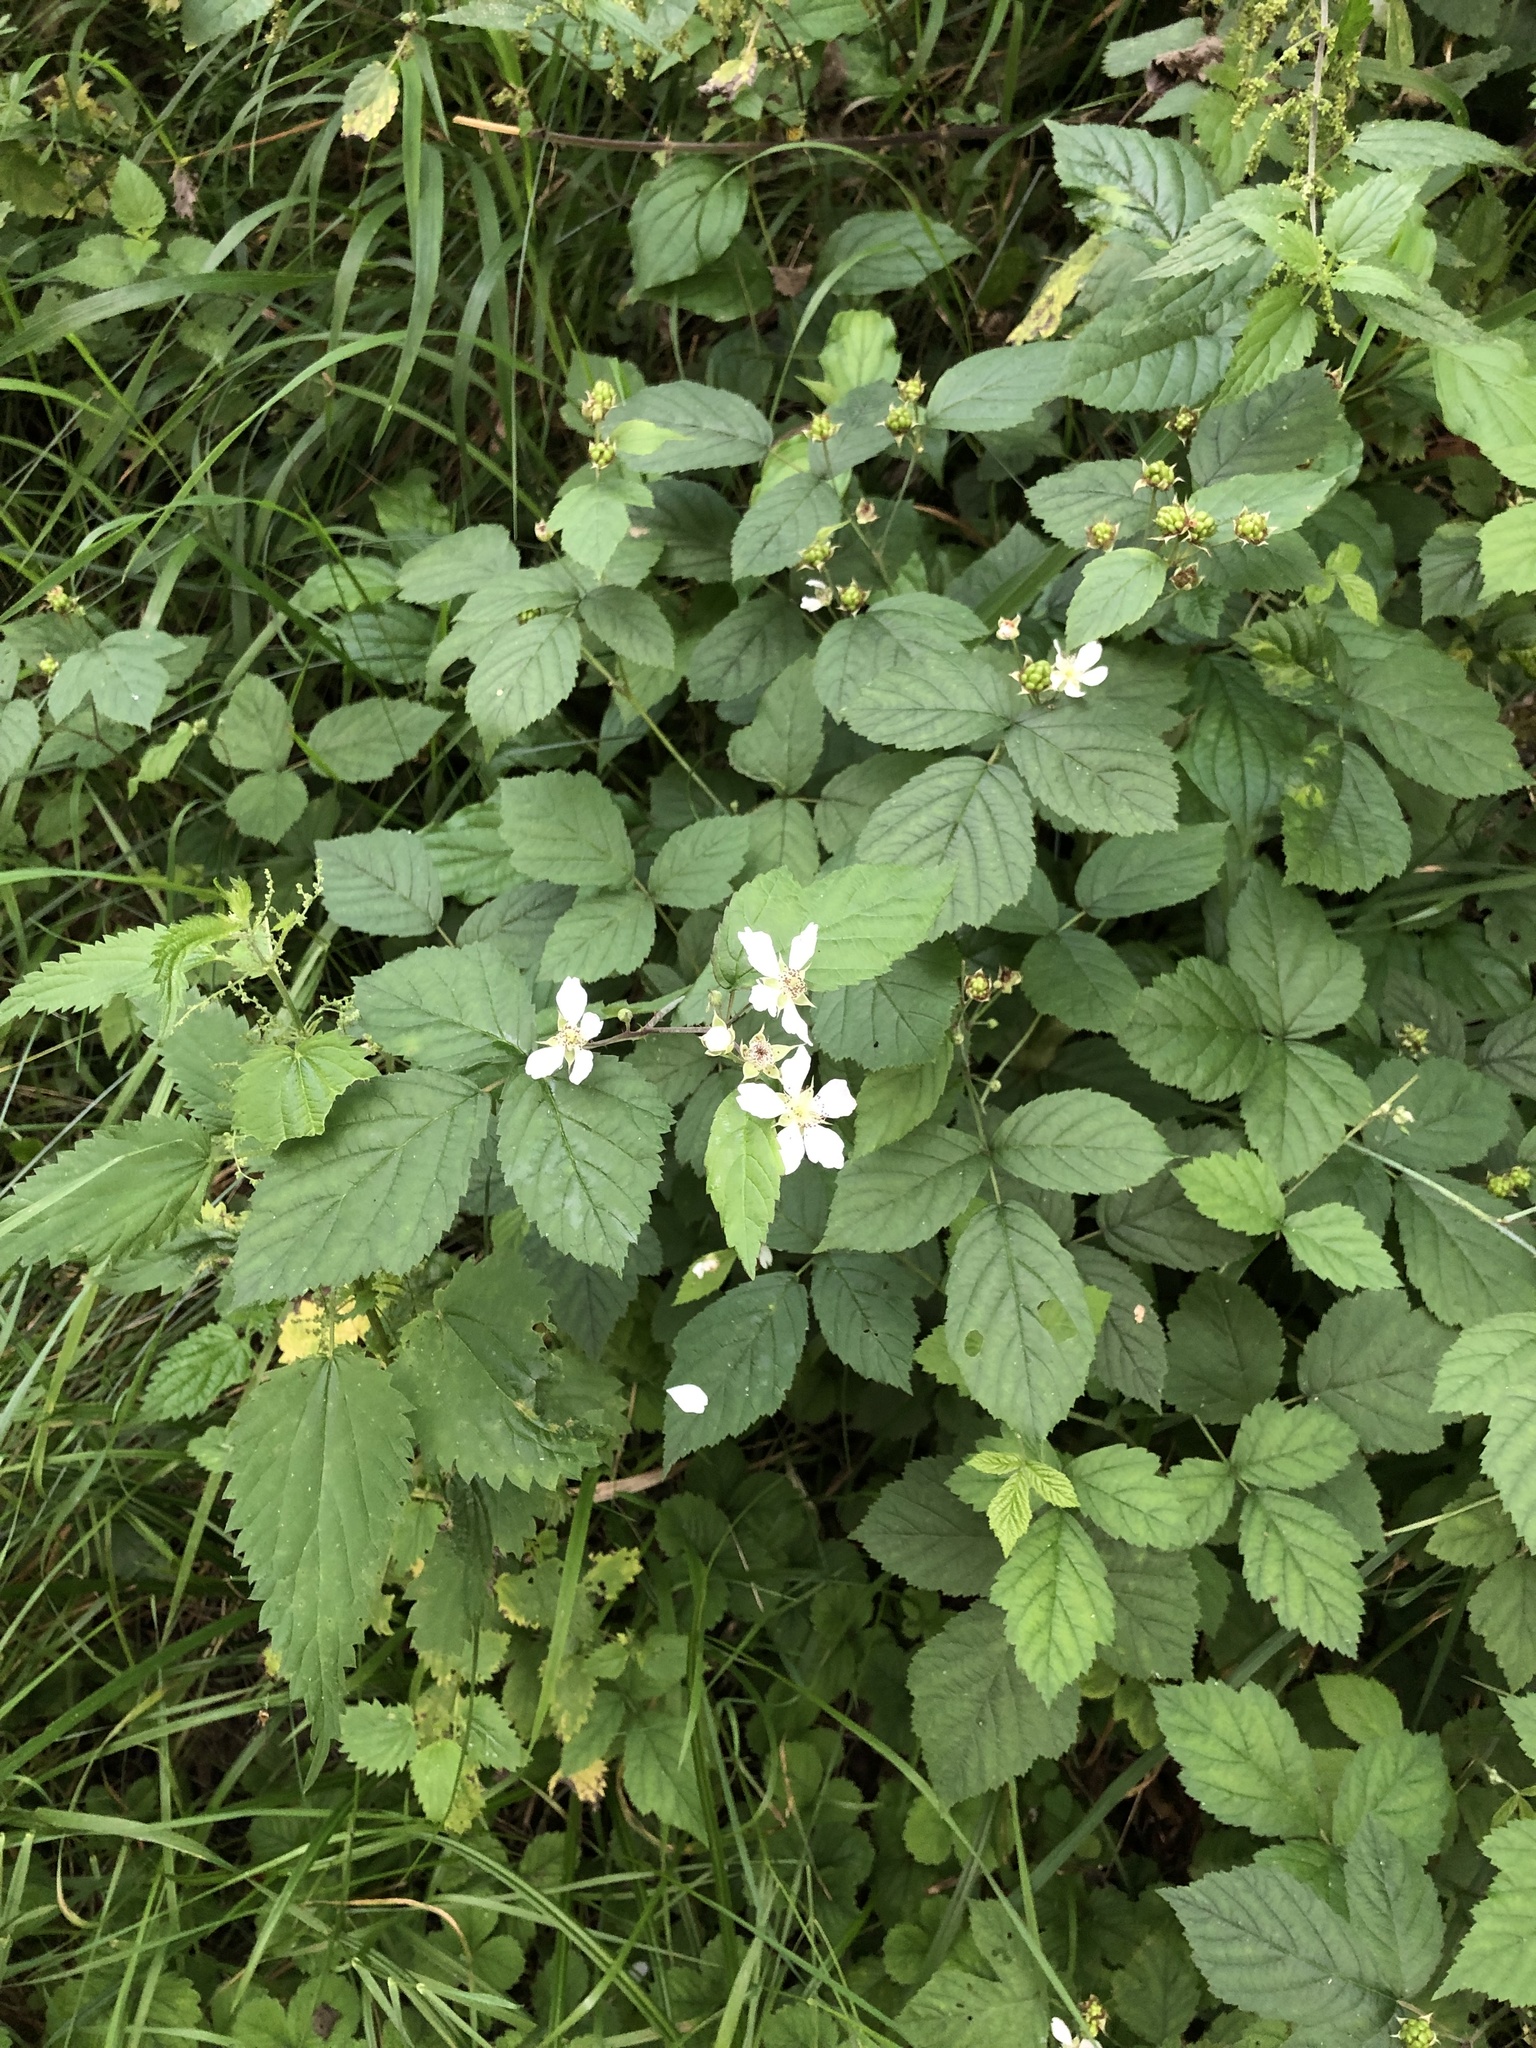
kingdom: Plantae
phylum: Tracheophyta
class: Magnoliopsida
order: Rosales
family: Rosaceae
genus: Rubus
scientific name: Rubus caesius
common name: Dewberry
